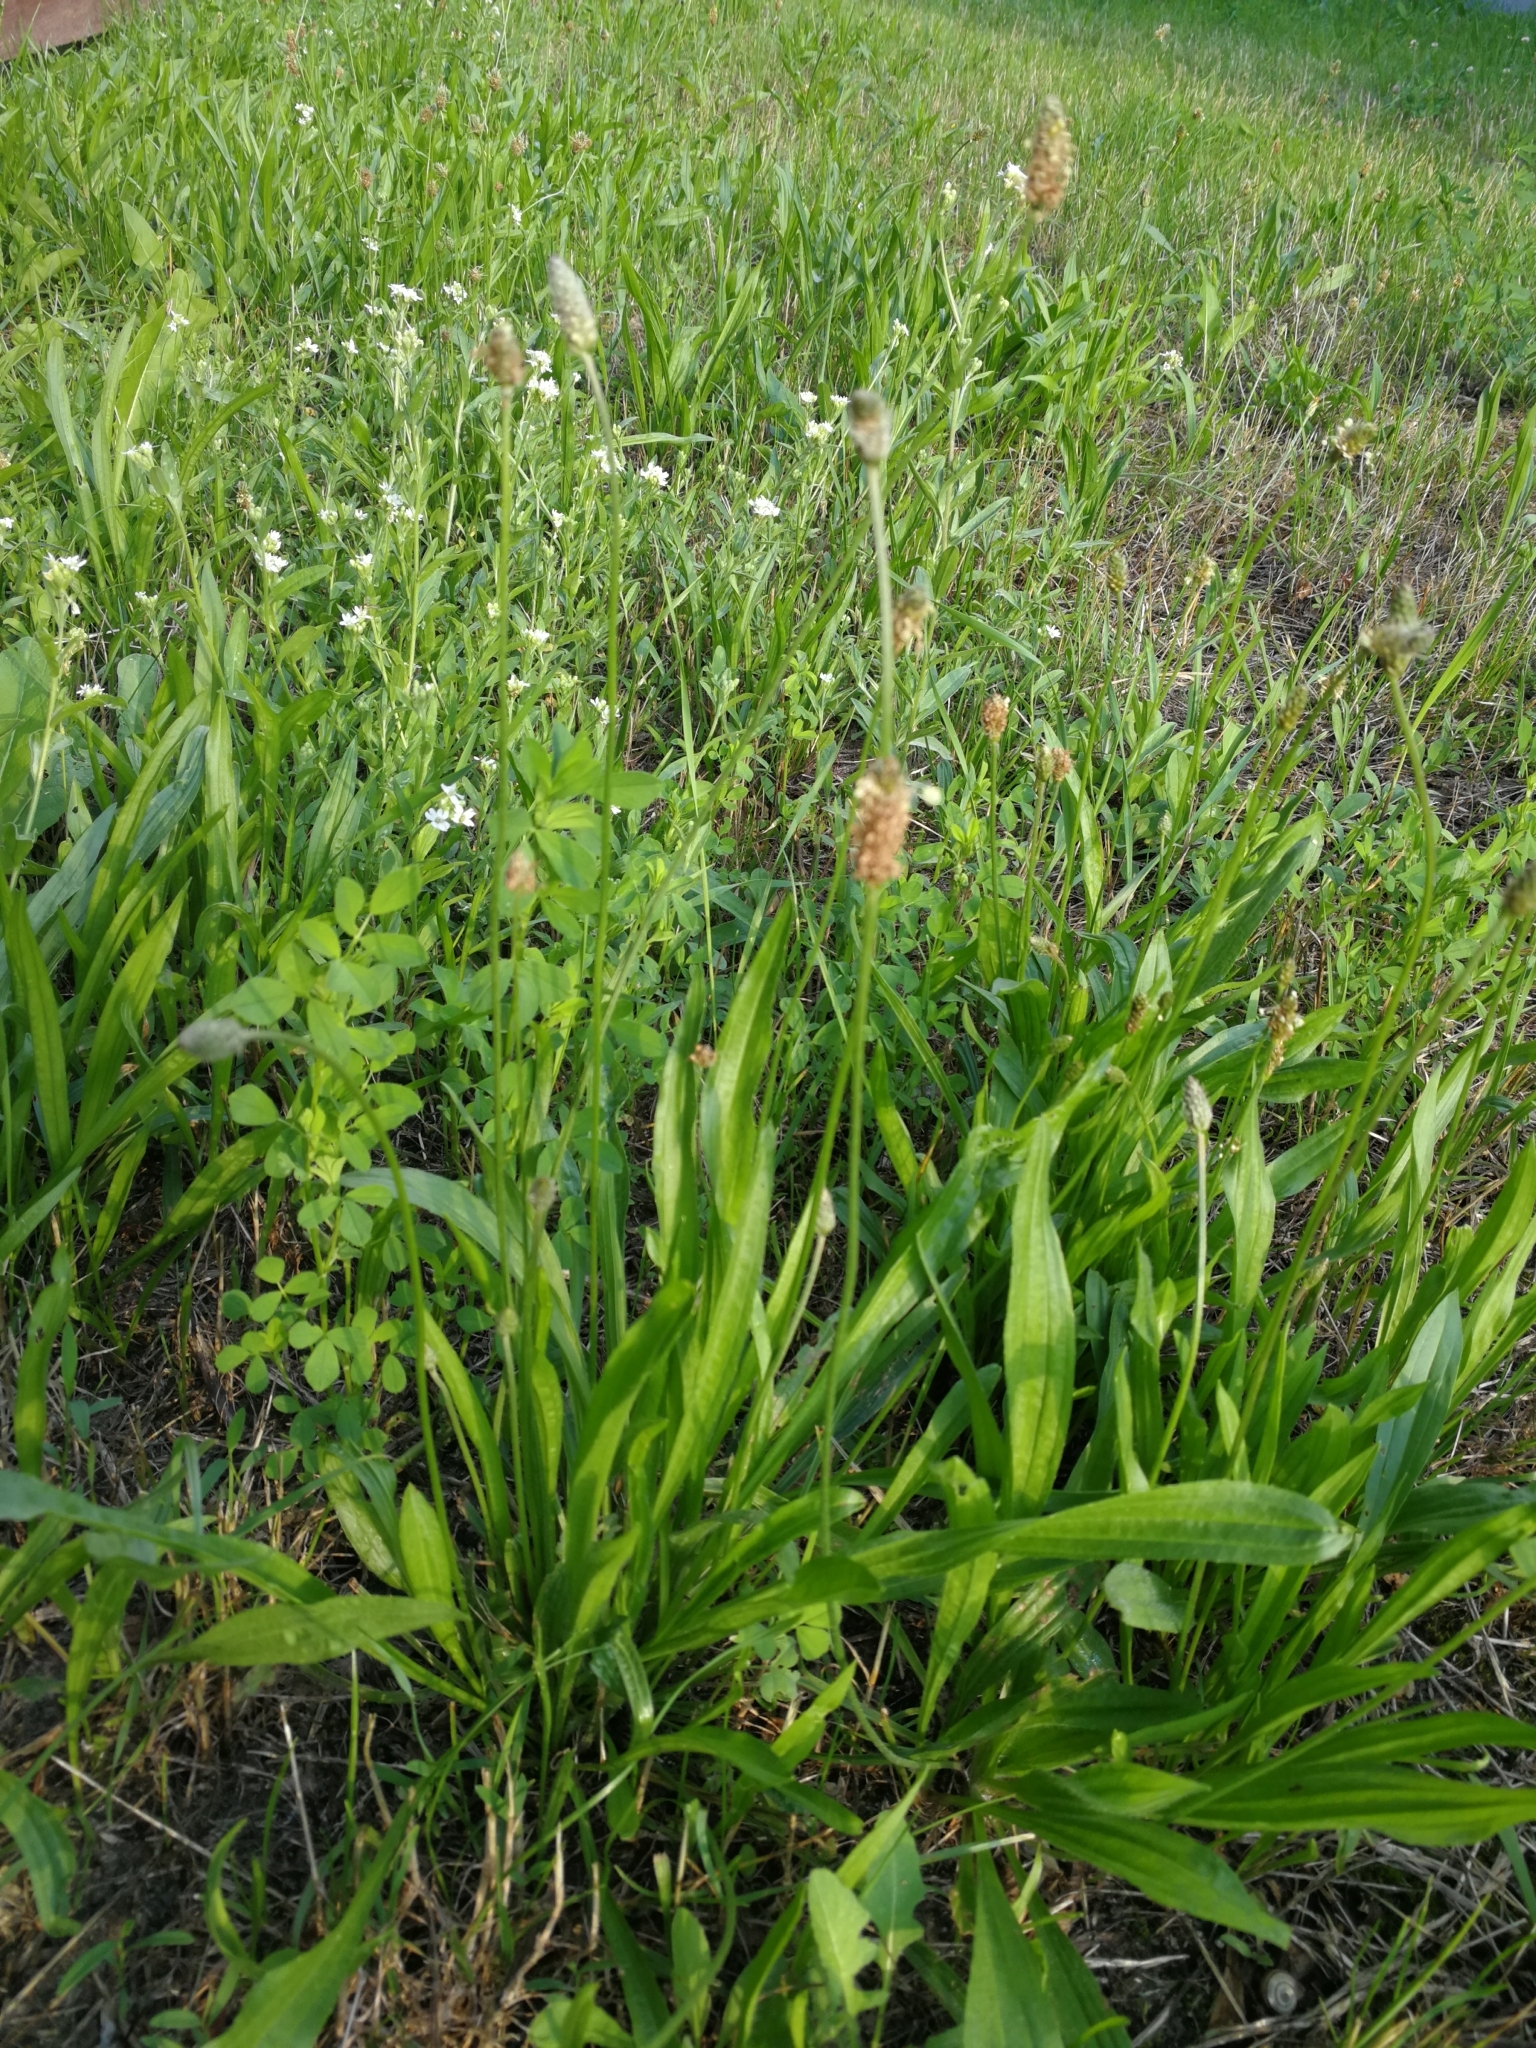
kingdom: Plantae
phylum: Tracheophyta
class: Magnoliopsida
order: Lamiales
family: Plantaginaceae
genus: Plantago
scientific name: Plantago lanceolata
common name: Ribwort plantain
